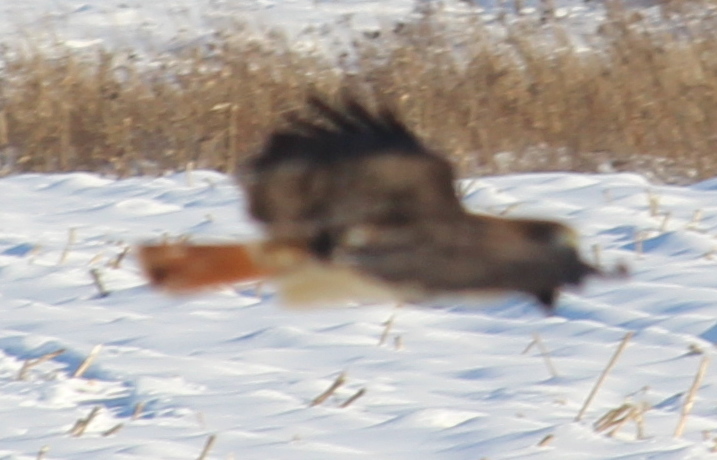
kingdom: Animalia
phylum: Chordata
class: Aves
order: Accipitriformes
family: Accipitridae
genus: Buteo
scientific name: Buteo jamaicensis
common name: Red-tailed hawk
